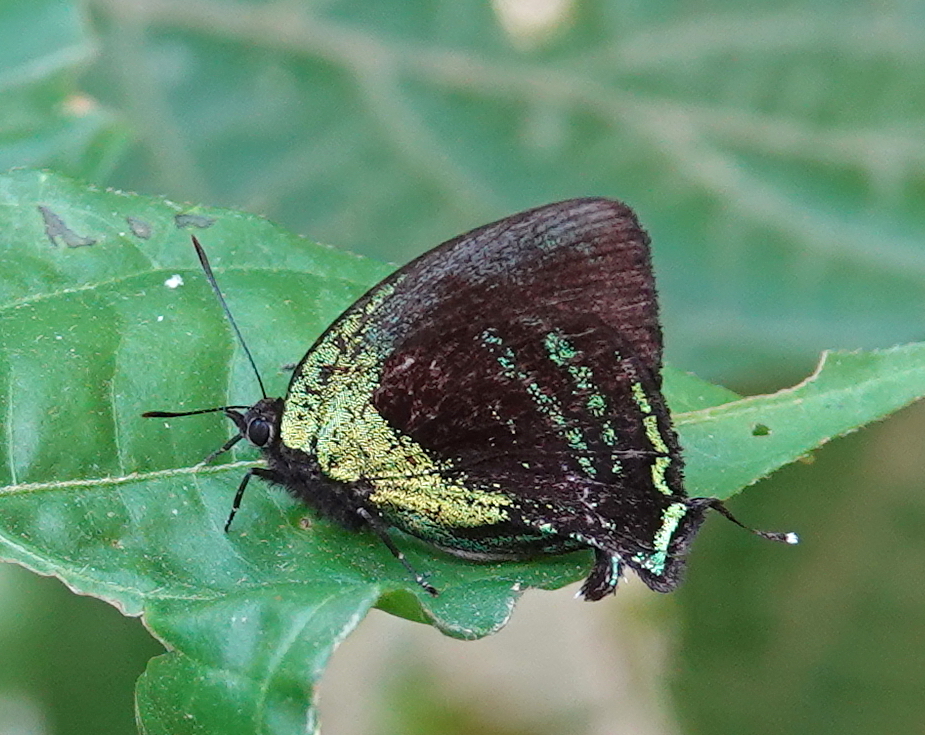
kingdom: Animalia
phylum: Arthropoda
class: Insecta
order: Lepidoptera
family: Lycaenidae
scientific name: Lycaenidae
